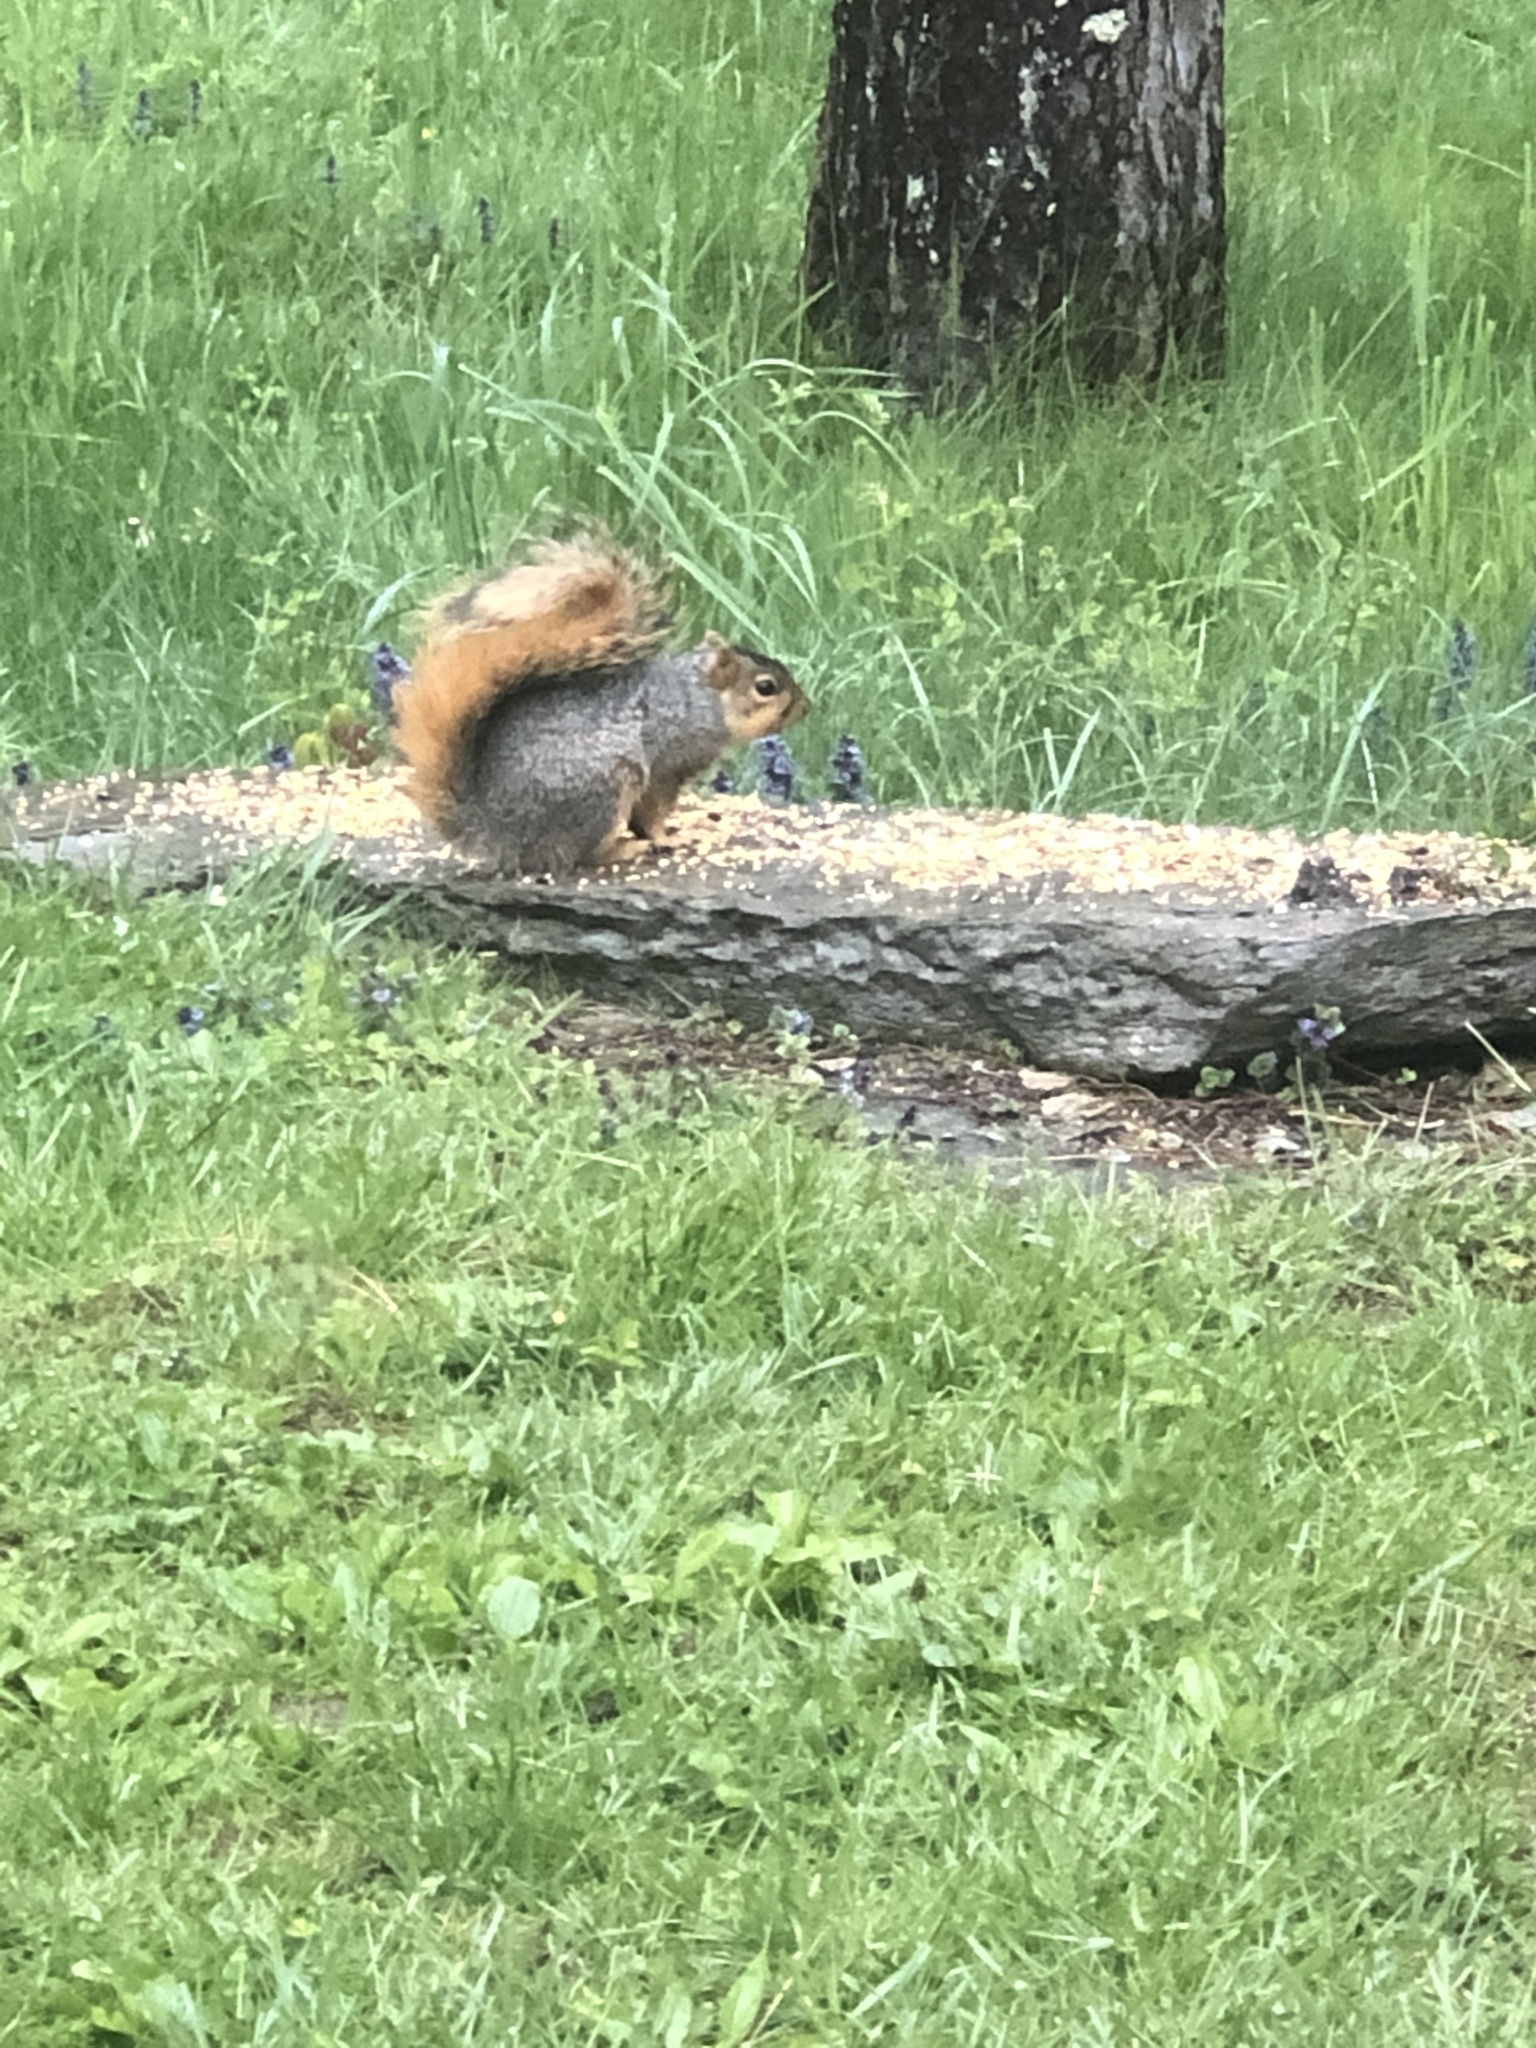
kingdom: Animalia
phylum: Chordata
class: Mammalia
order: Rodentia
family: Sciuridae
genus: Sciurus
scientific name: Sciurus niger
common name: Fox squirrel
